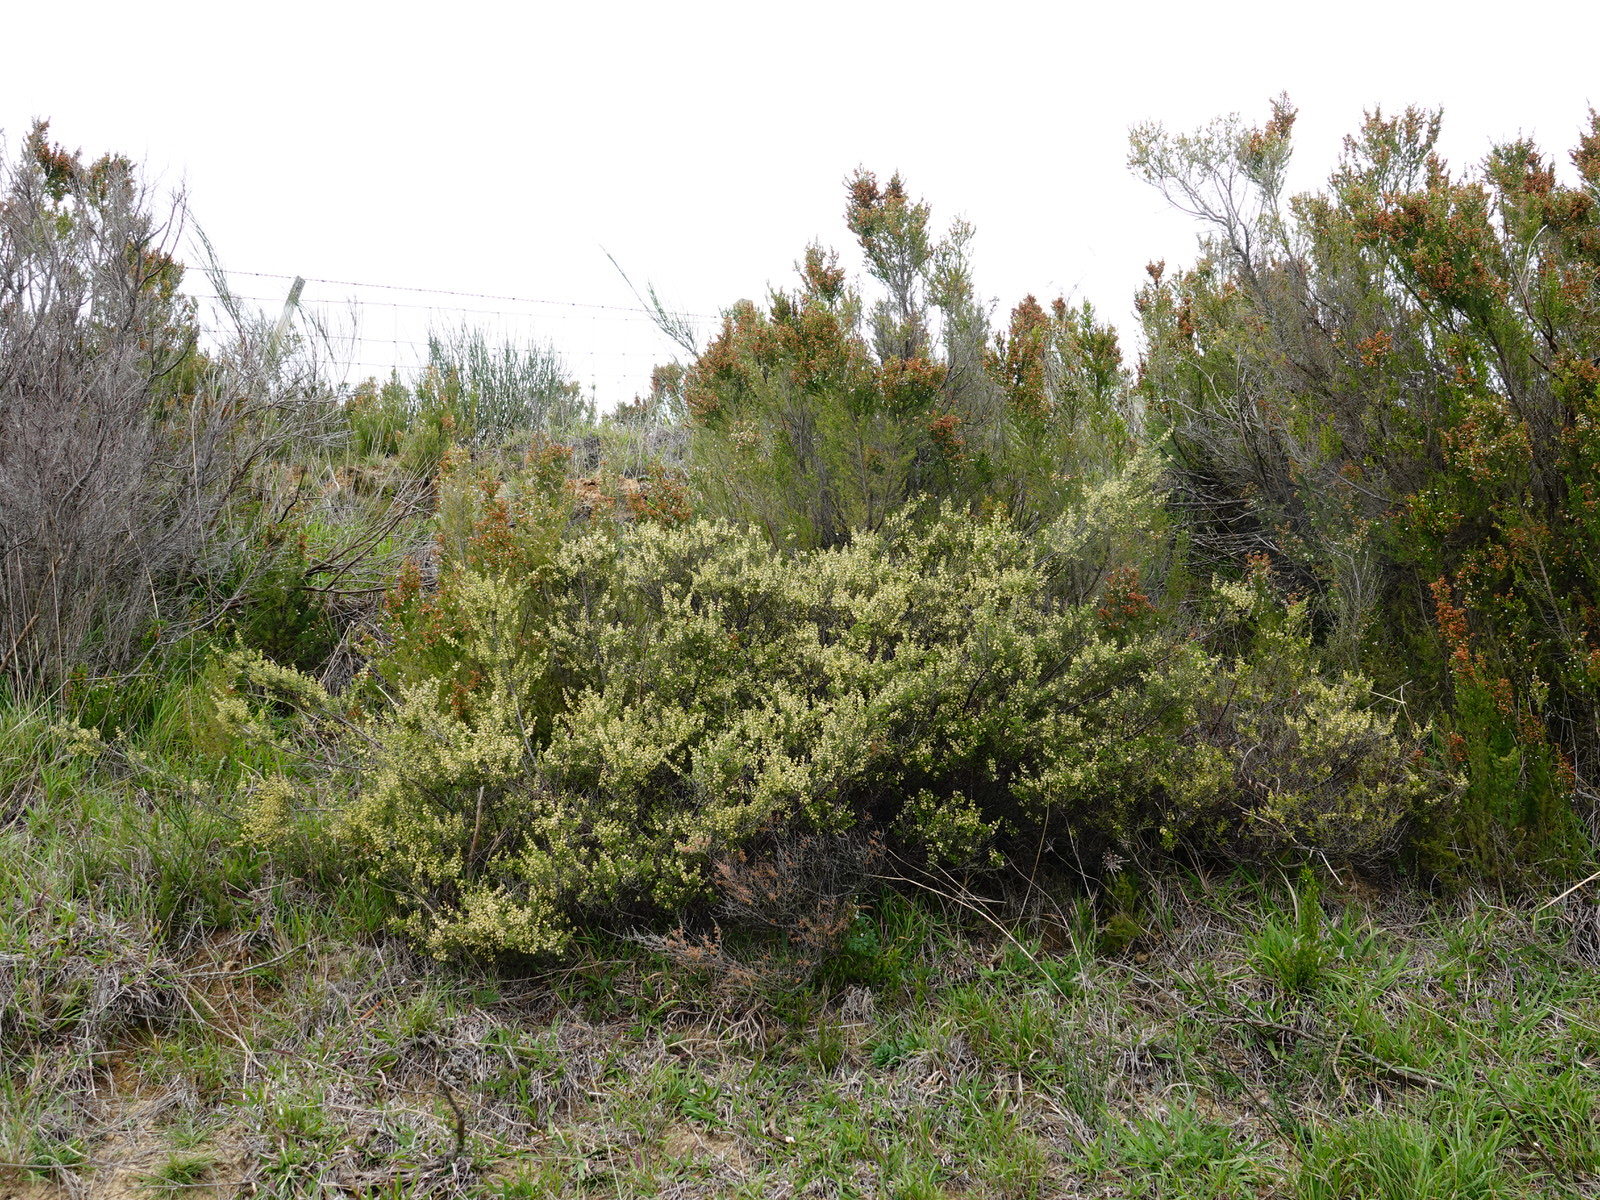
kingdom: Plantae
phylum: Tracheophyta
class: Magnoliopsida
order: Rosales
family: Rhamnaceae
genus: Pomaderris
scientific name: Pomaderris amoena
